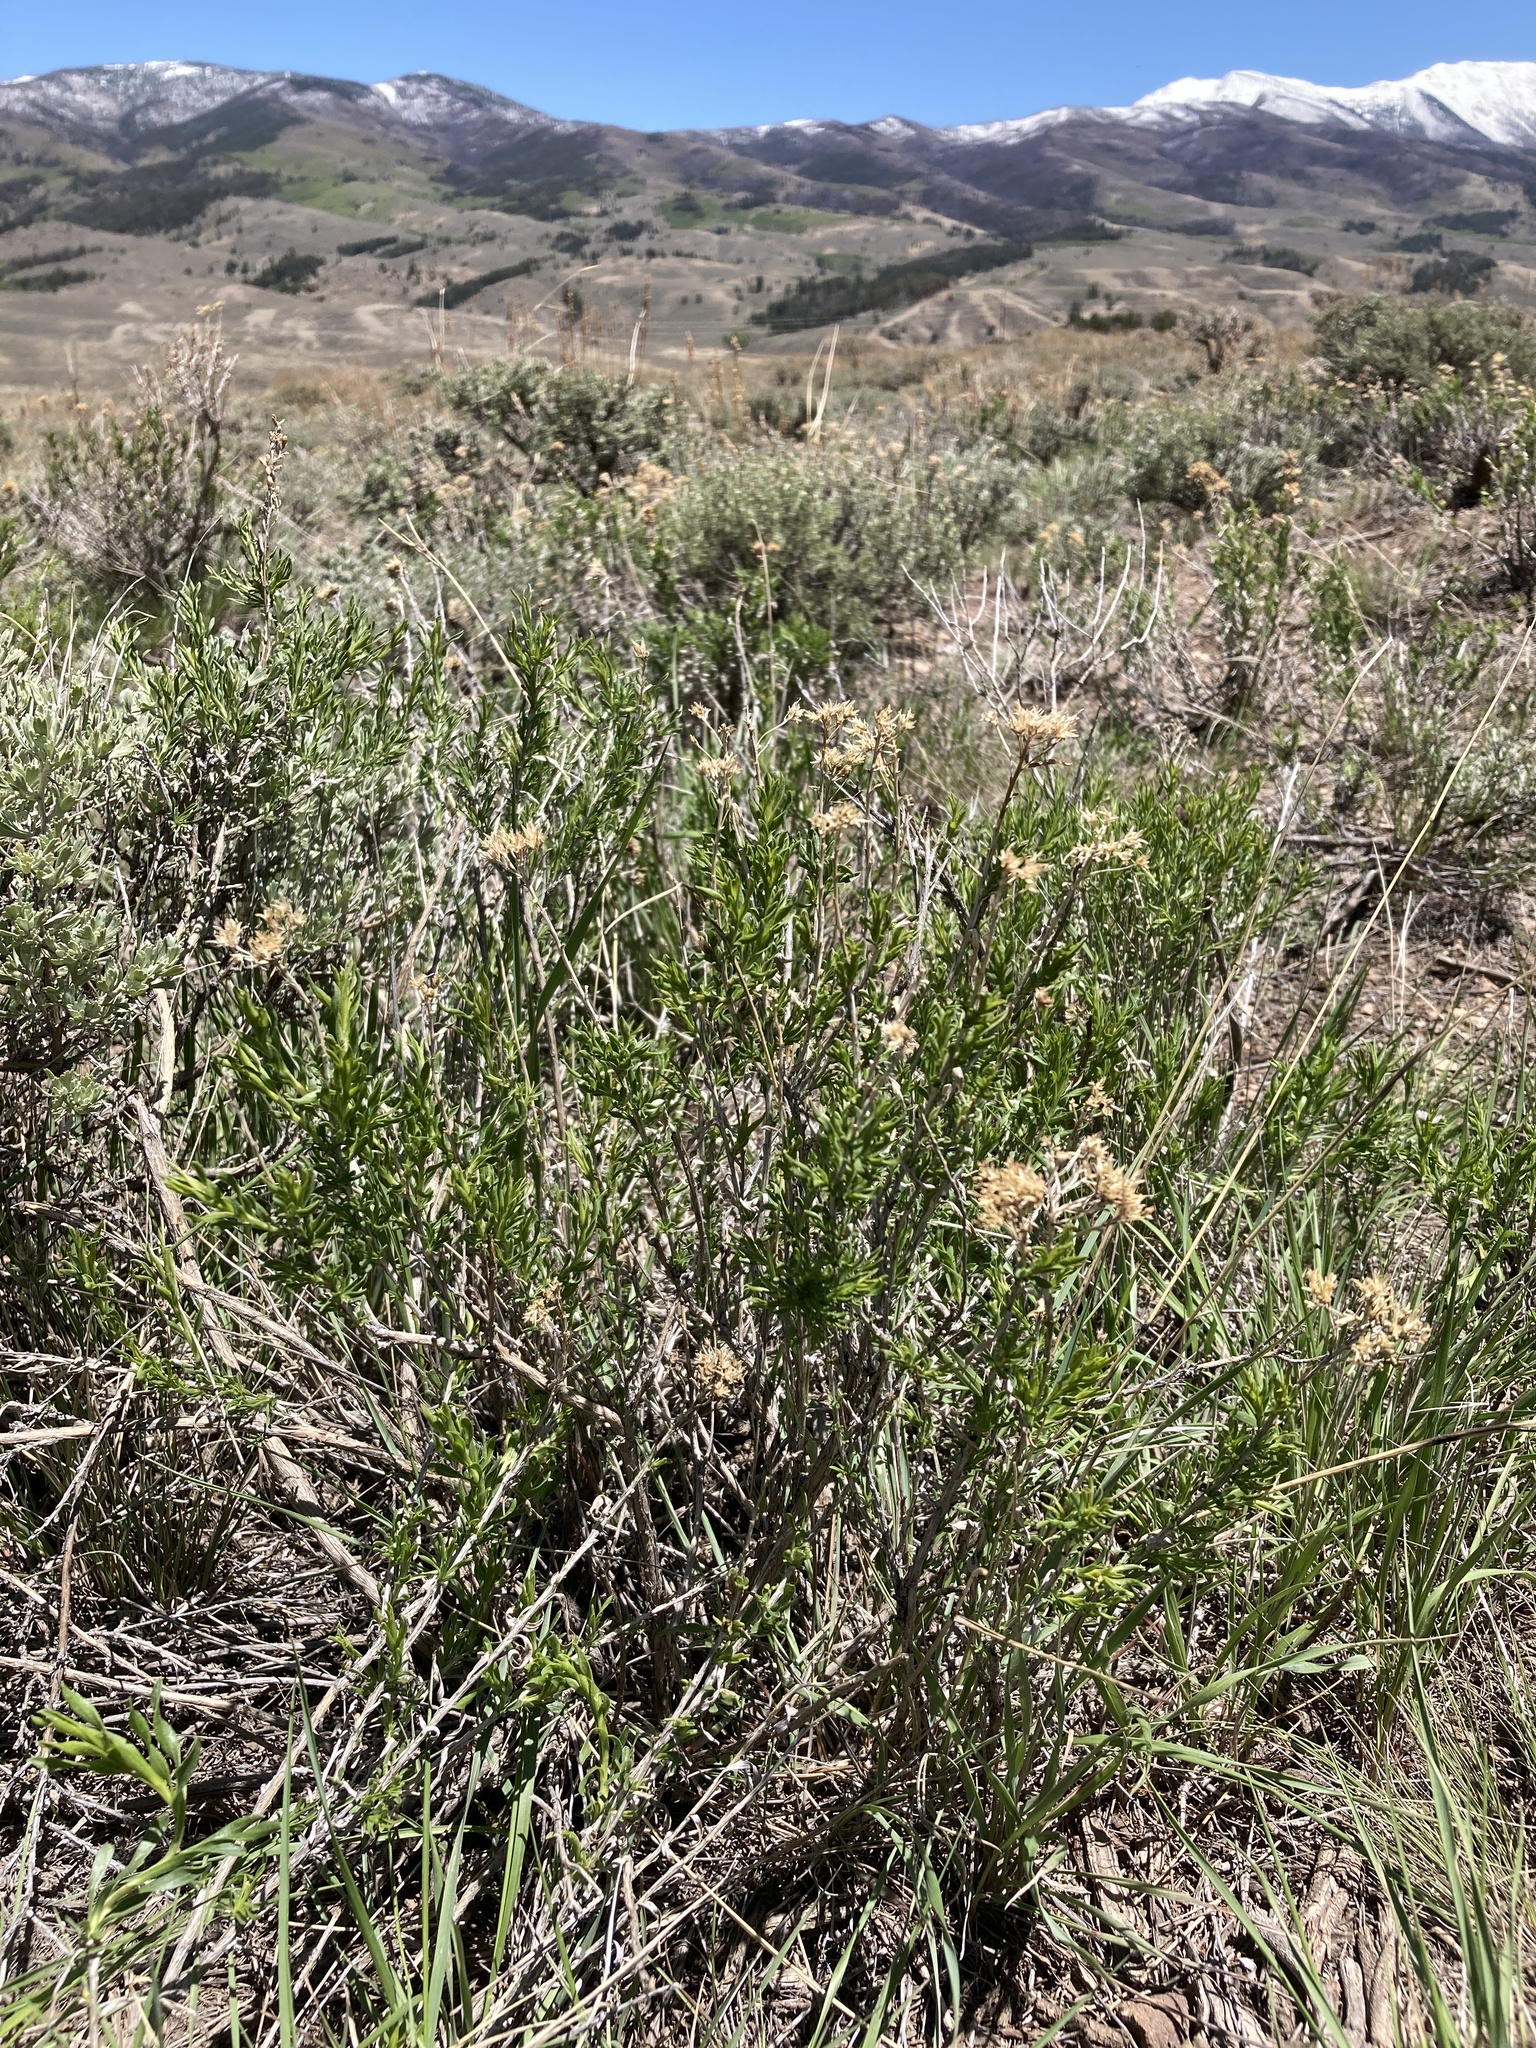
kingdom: Plantae
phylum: Tracheophyta
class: Magnoliopsida
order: Asterales
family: Asteraceae
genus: Chrysothamnus
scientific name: Chrysothamnus viscidiflorus
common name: Yellow rabbitbrush
